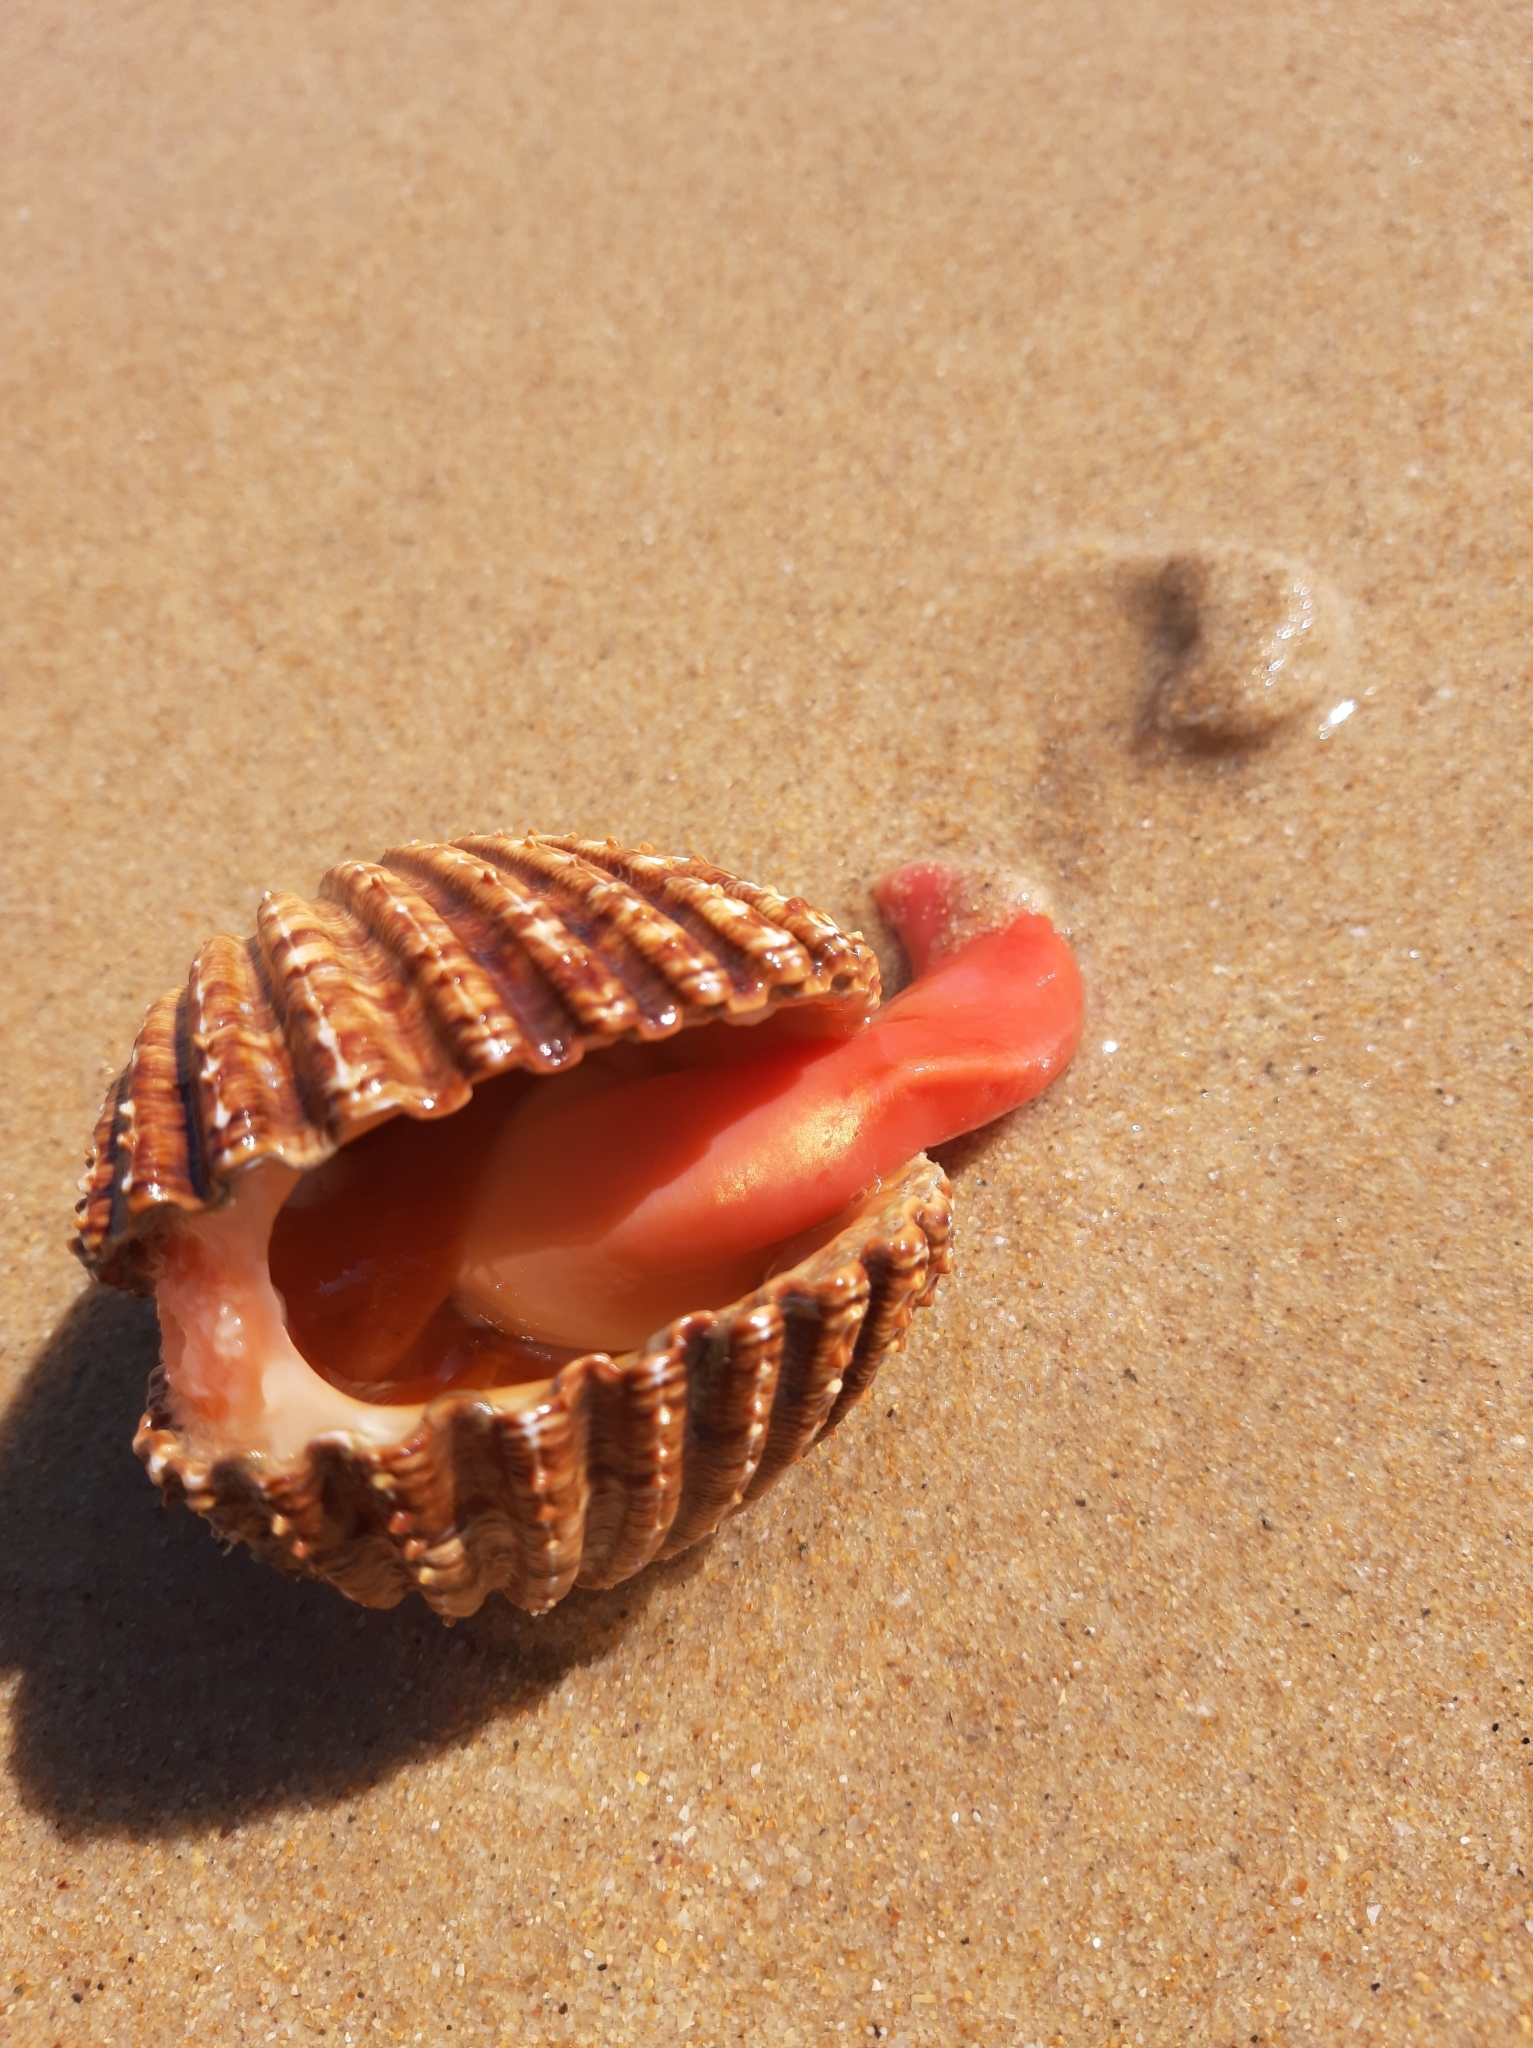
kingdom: Animalia
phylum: Mollusca
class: Bivalvia
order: Cardiida
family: Cardiidae
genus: Acanthocardia
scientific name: Acanthocardia echinata
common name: Prickly cockle
